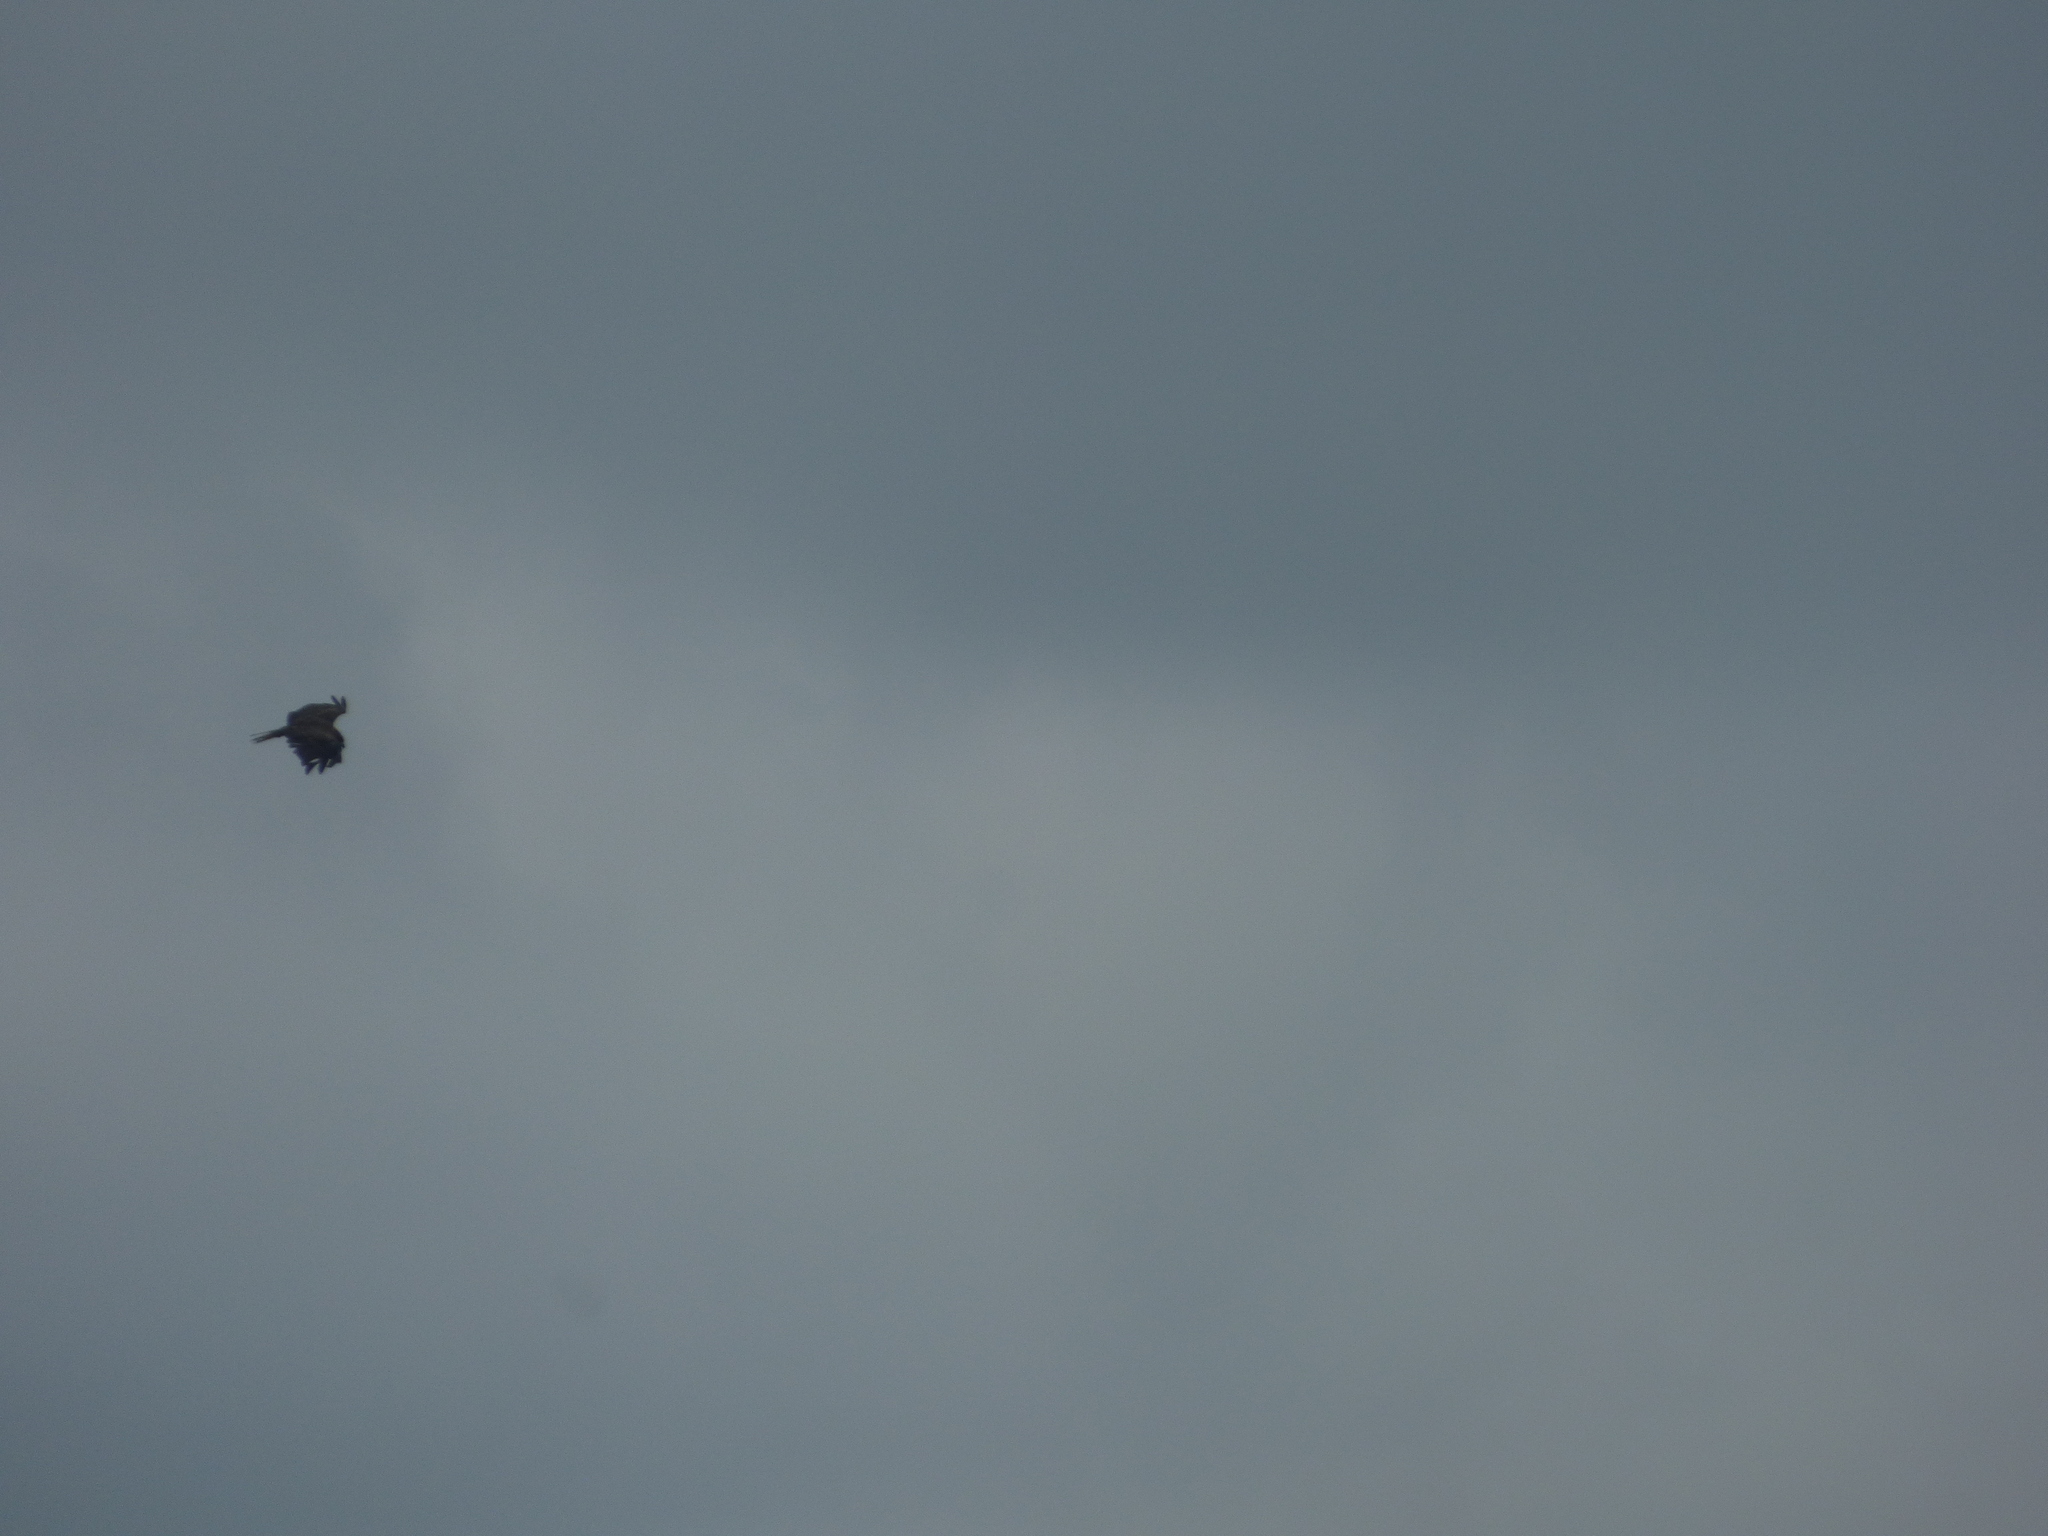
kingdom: Animalia
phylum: Chordata
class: Aves
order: Accipitriformes
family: Accipitridae
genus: Milvus
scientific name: Milvus migrans
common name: Black kite
